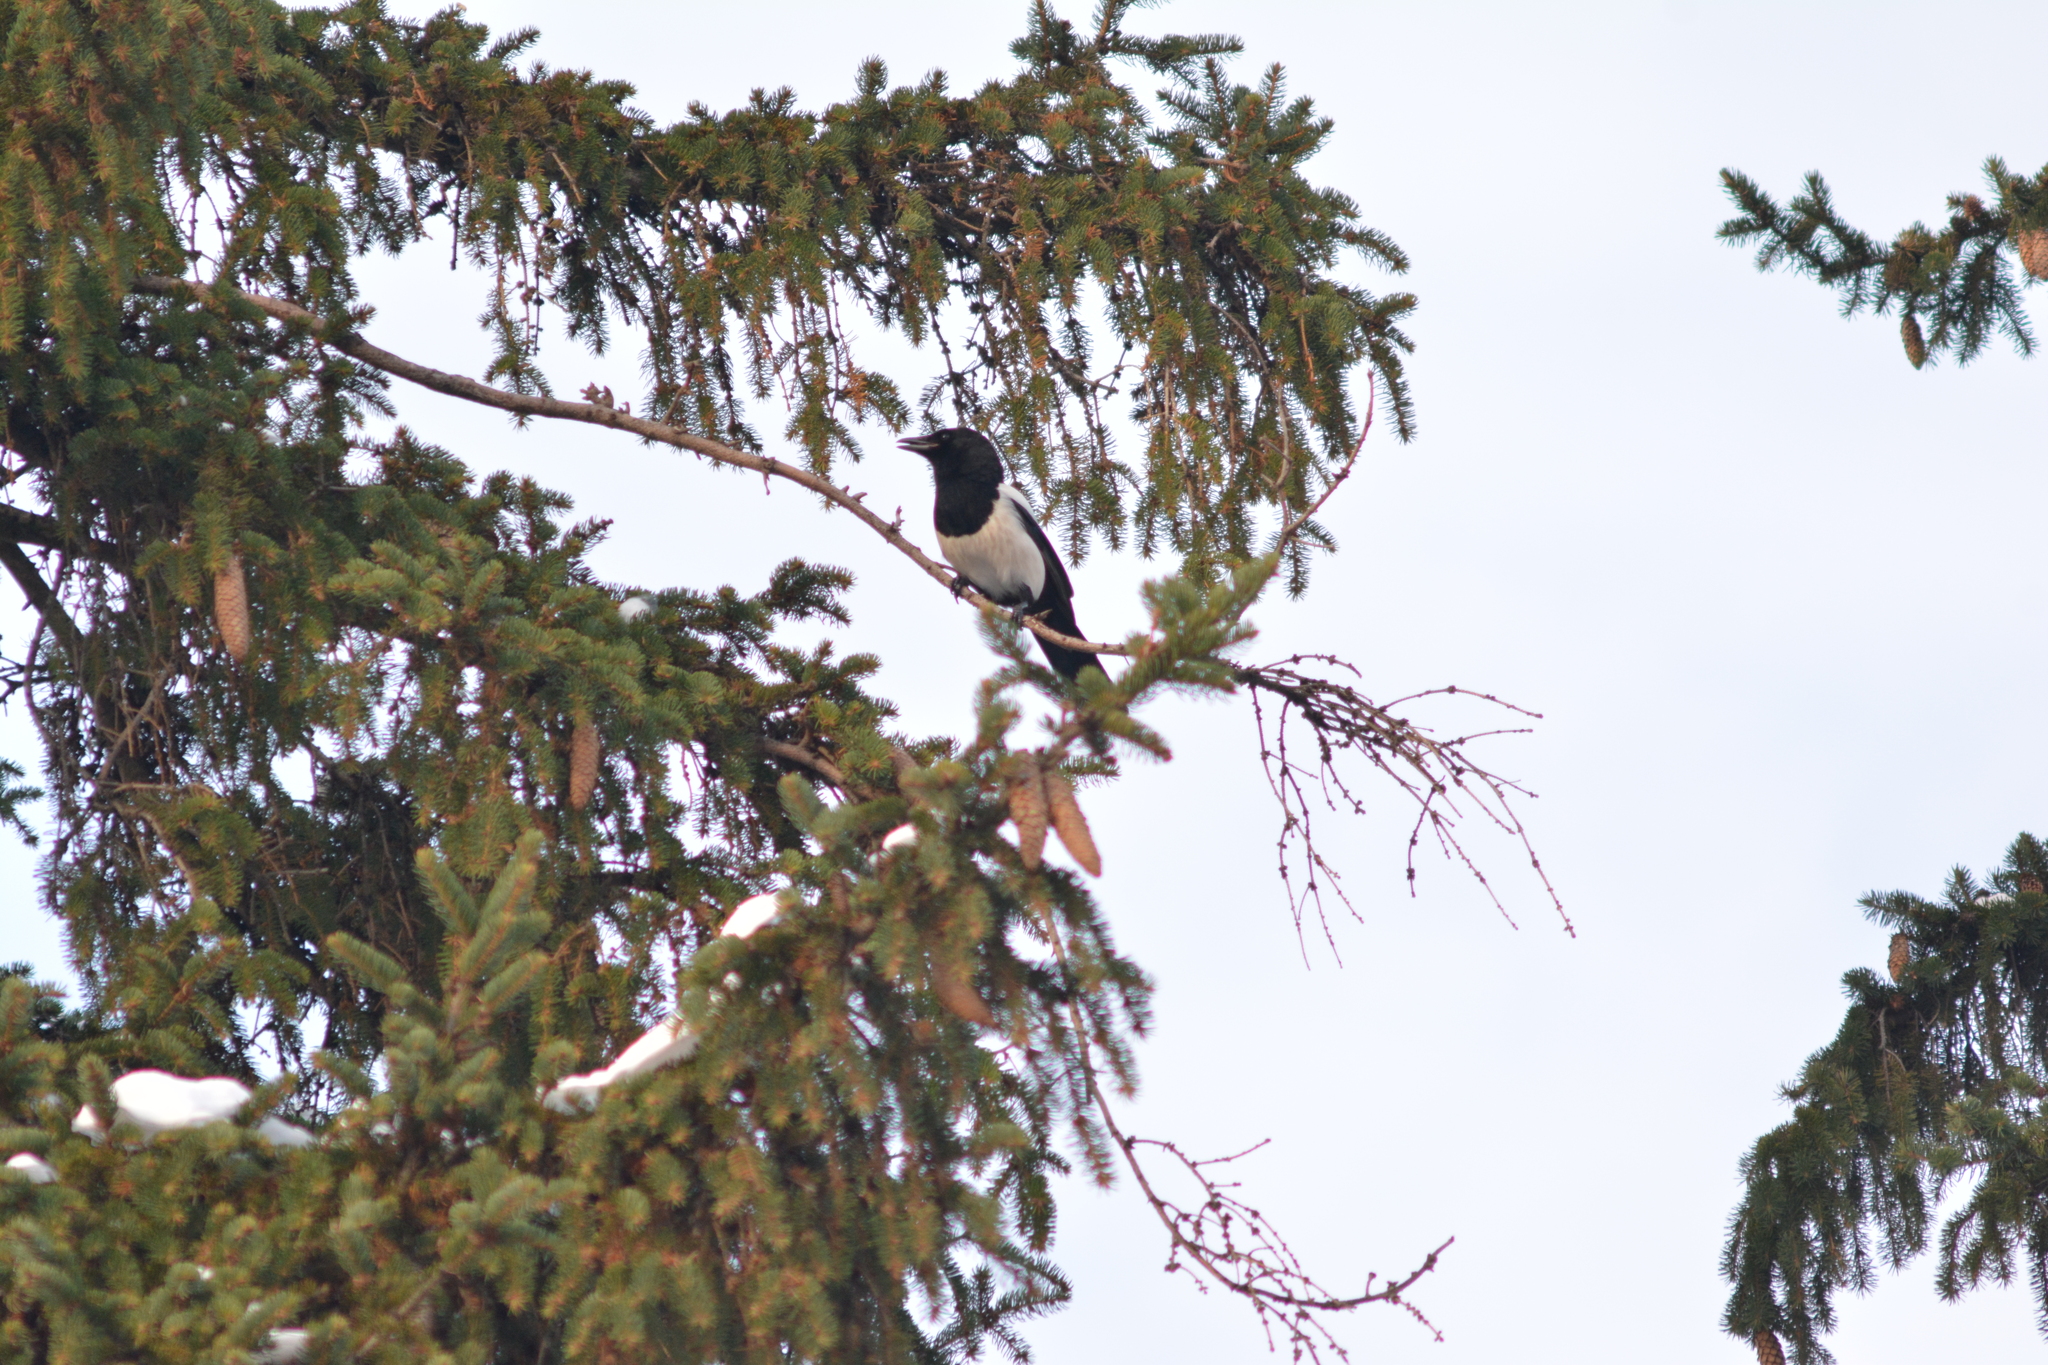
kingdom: Animalia
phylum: Chordata
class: Aves
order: Passeriformes
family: Corvidae
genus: Pica
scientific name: Pica pica
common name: Eurasian magpie
